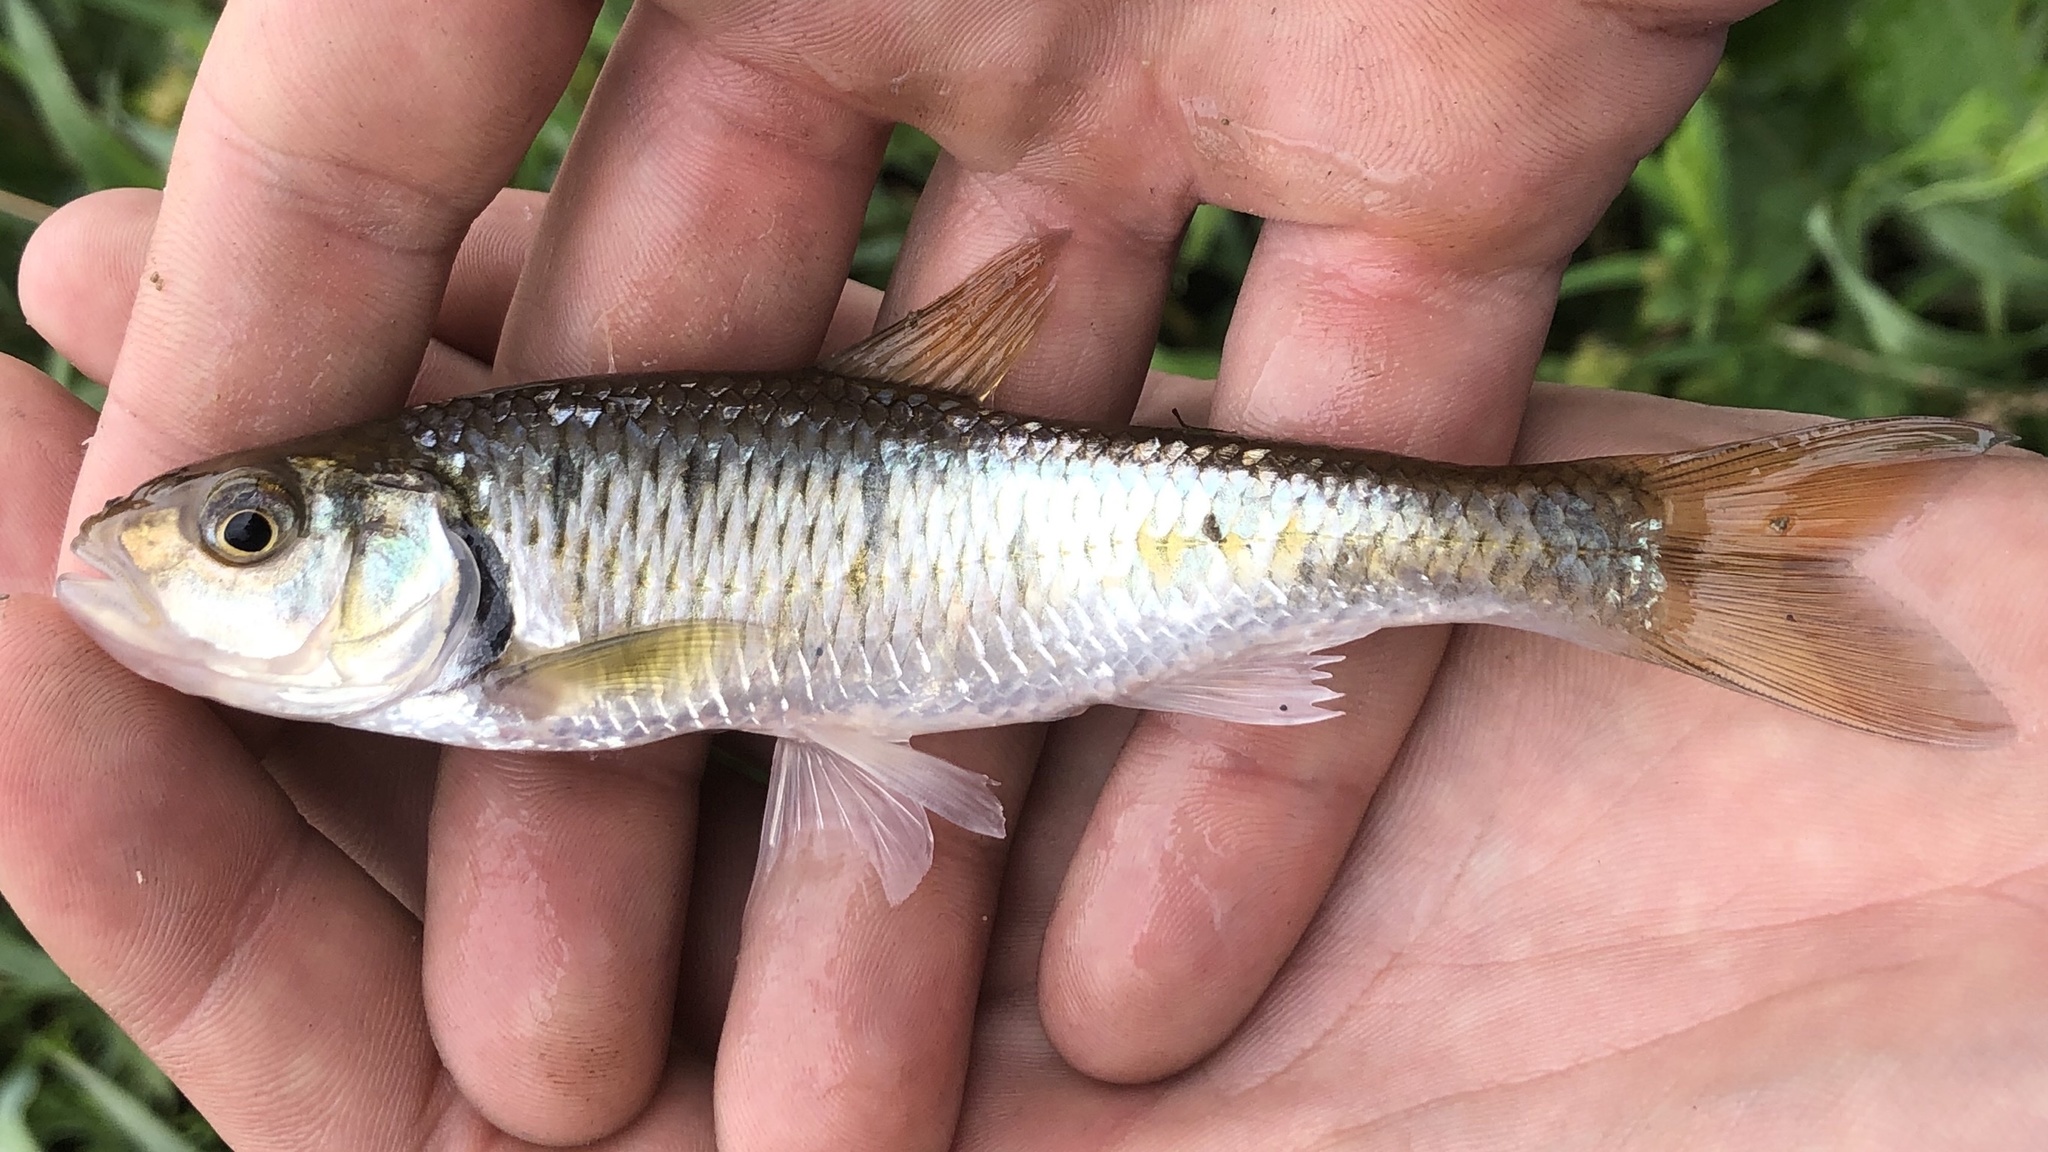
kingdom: Animalia
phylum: Chordata
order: Cypriniformes
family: Cyprinidae
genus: Luxilus
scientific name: Luxilus chrysocephalus
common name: Striped shiner
